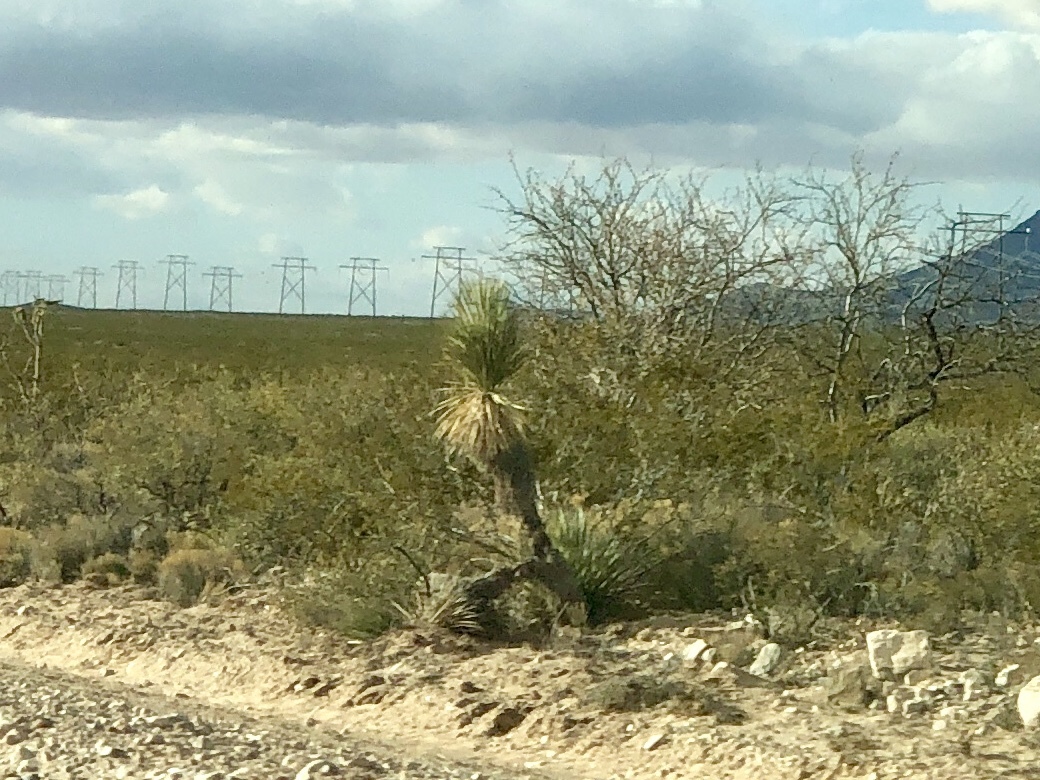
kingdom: Plantae
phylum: Tracheophyta
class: Liliopsida
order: Asparagales
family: Asparagaceae
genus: Yucca
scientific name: Yucca elata
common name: Palmella
